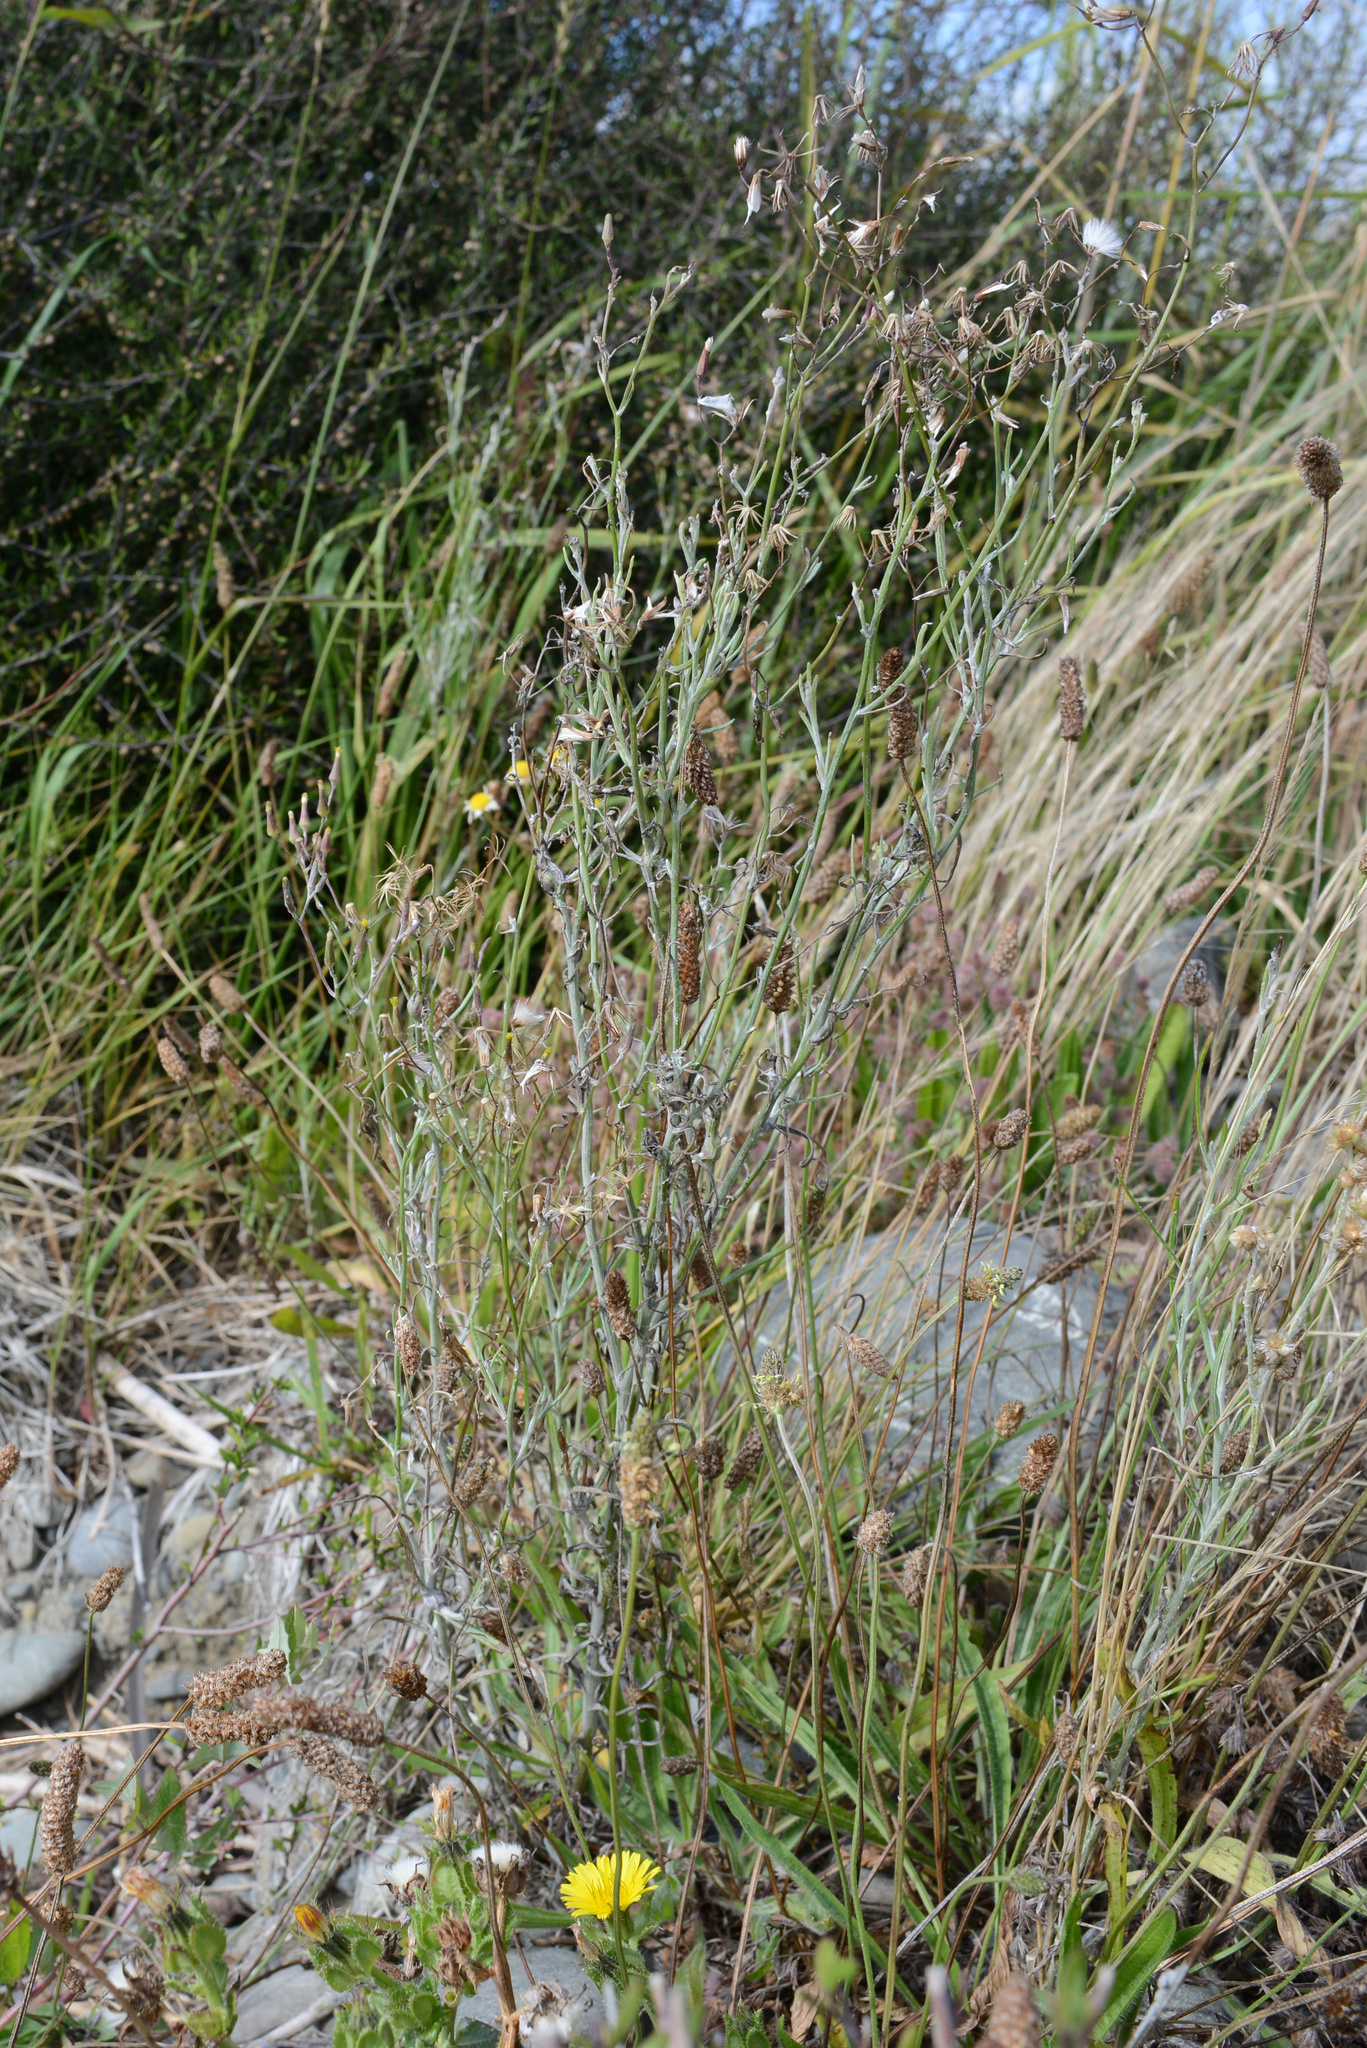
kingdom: Plantae
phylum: Tracheophyta
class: Magnoliopsida
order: Asterales
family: Asteraceae
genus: Senecio
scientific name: Senecio quadridentatus
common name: Cotton fireweed
